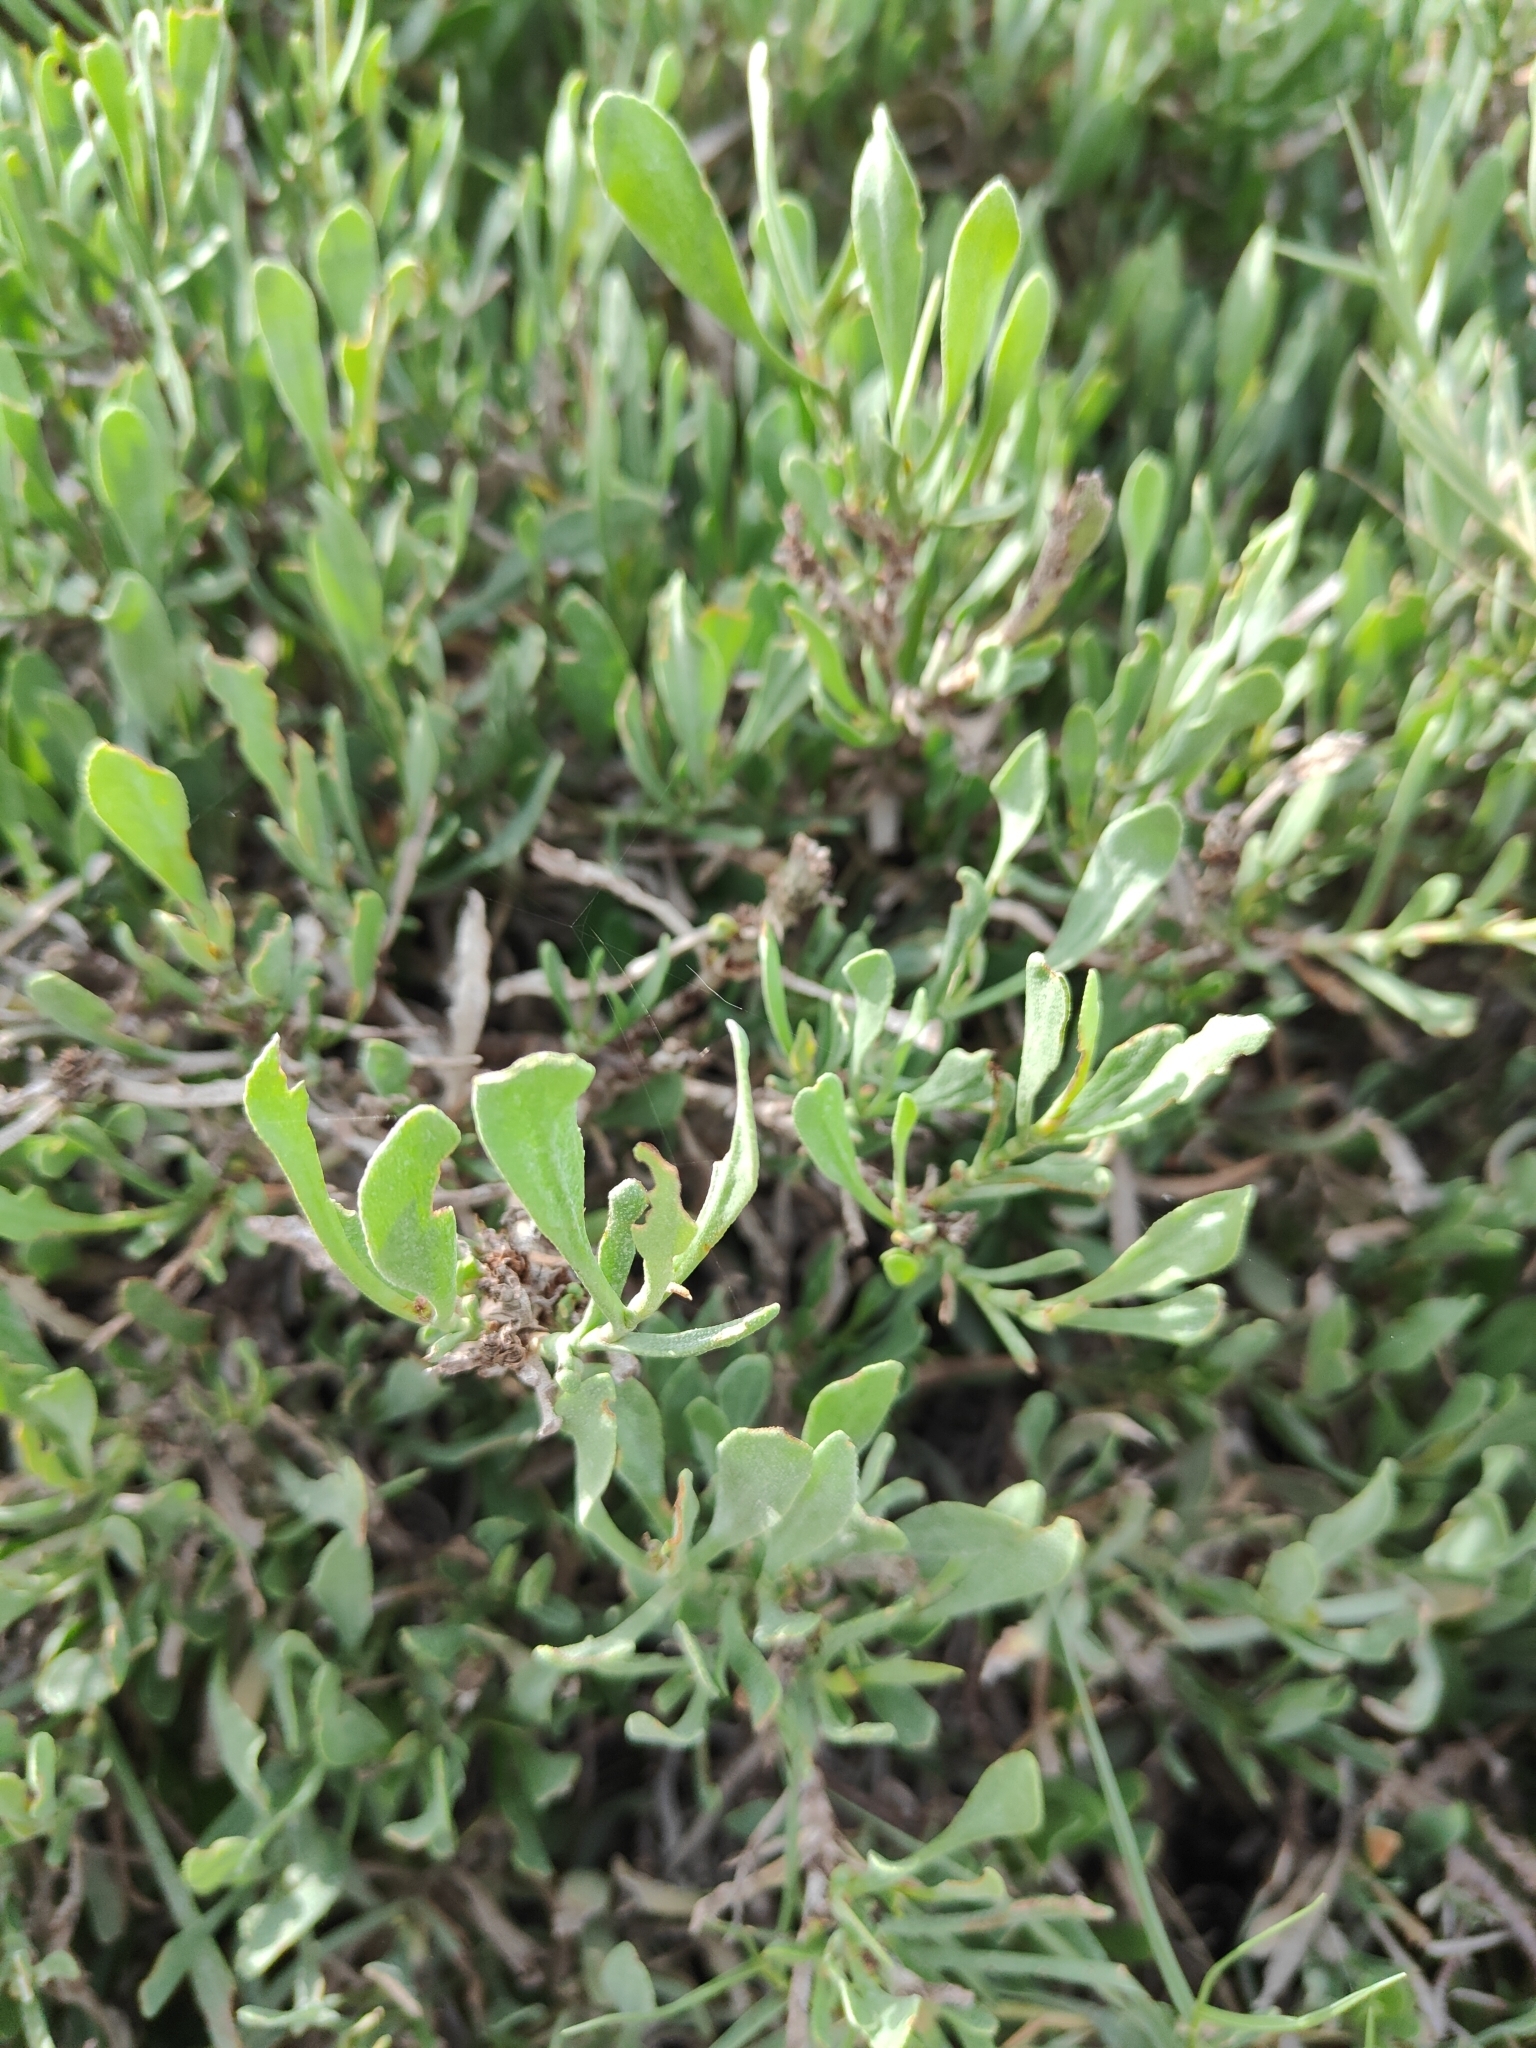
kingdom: Plantae
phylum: Tracheophyta
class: Magnoliopsida
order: Caryophyllales
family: Plumbaginaceae
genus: Limoniastrum
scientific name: Limoniastrum monopetalum
